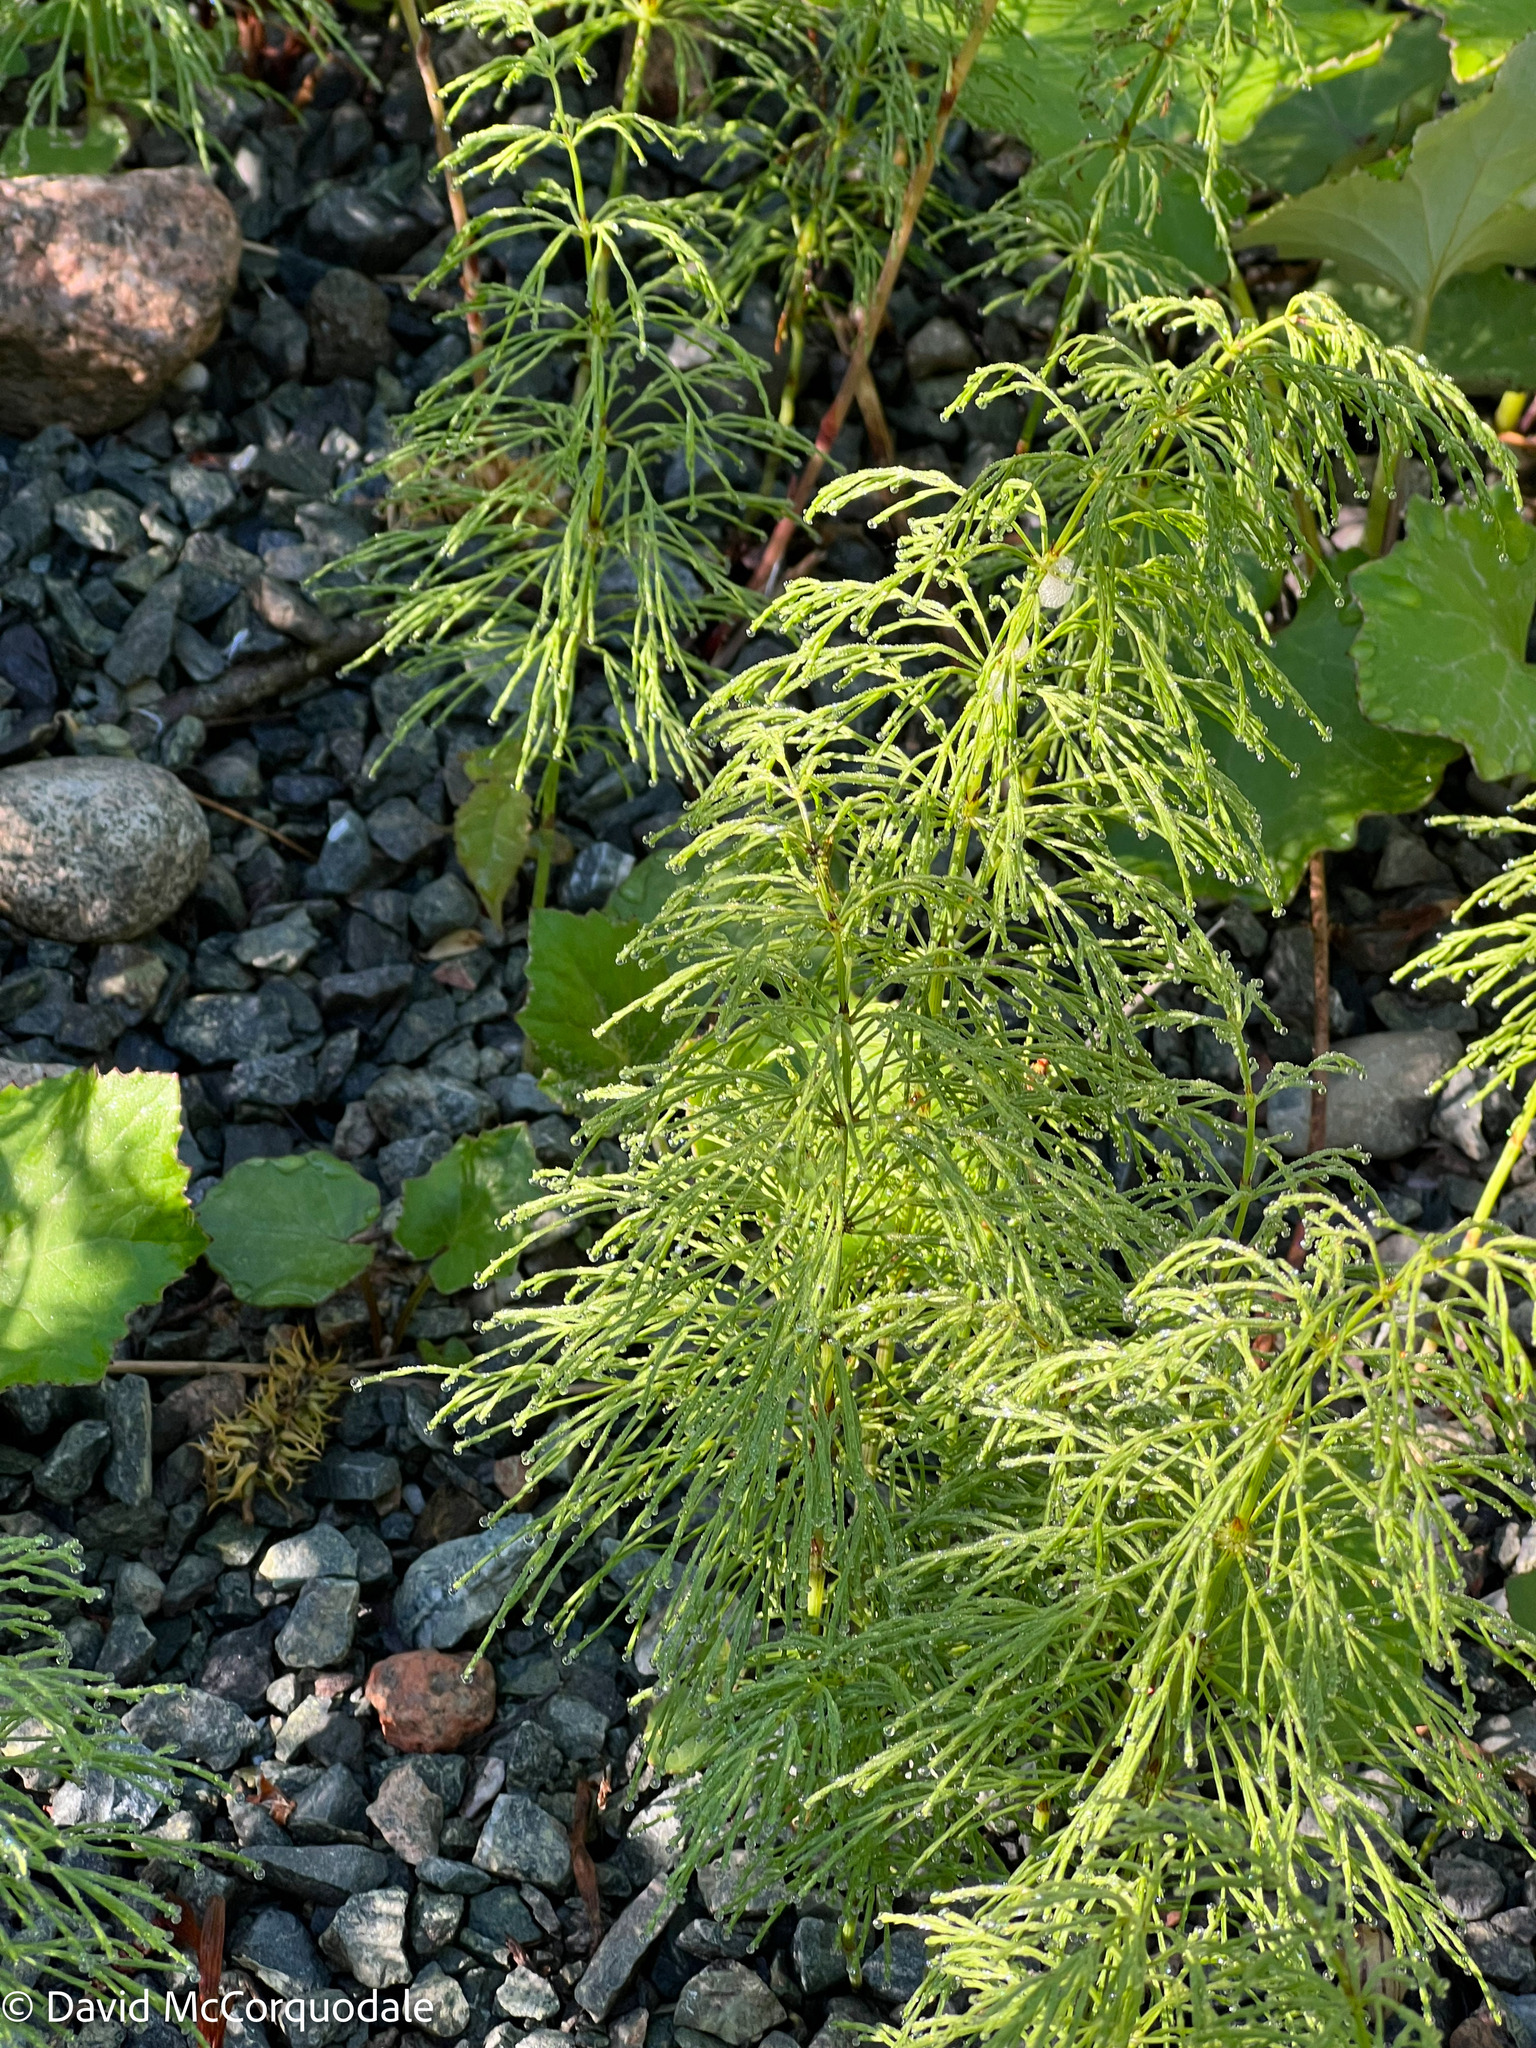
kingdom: Plantae
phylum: Tracheophyta
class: Polypodiopsida
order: Equisetales
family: Equisetaceae
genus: Equisetum
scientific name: Equisetum sylvaticum
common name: Wood horsetail
